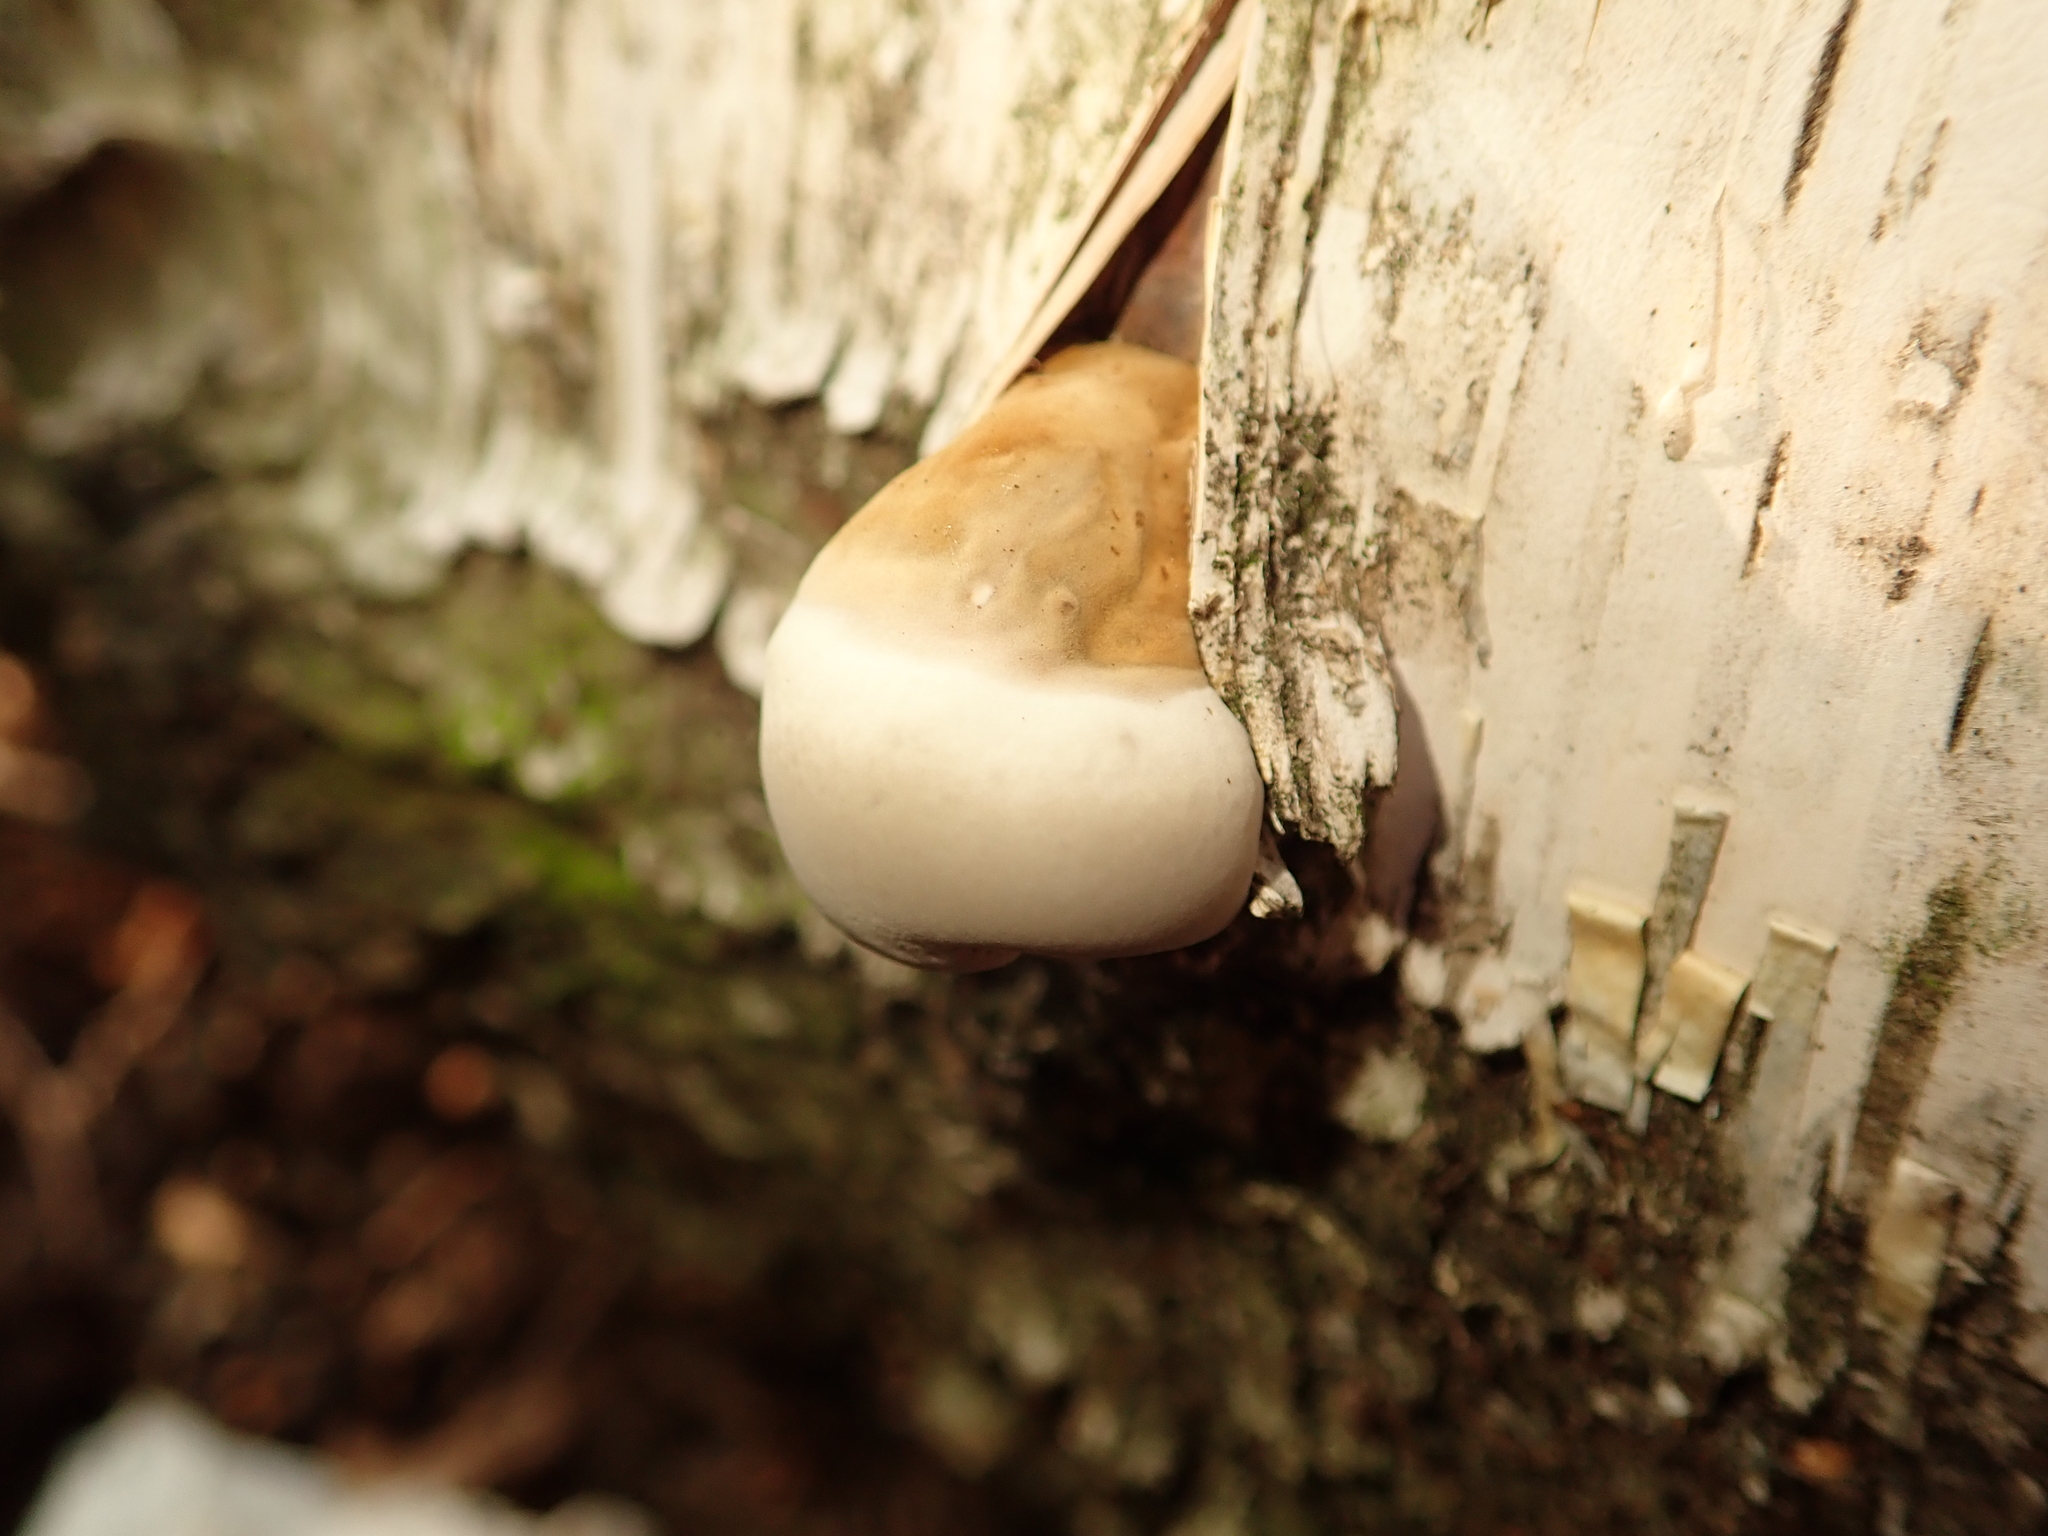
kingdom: Fungi
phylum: Basidiomycota
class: Agaricomycetes
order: Polyporales
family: Fomitopsidaceae
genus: Fomitopsis
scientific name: Fomitopsis betulina
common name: Birch polypore
